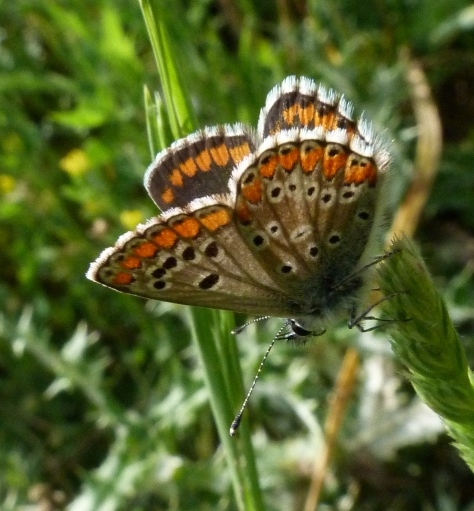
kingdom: Animalia
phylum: Arthropoda
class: Insecta
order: Lepidoptera
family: Lycaenidae
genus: Aricia
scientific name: Aricia cramera
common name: Eschscholtz´s brown  argus
